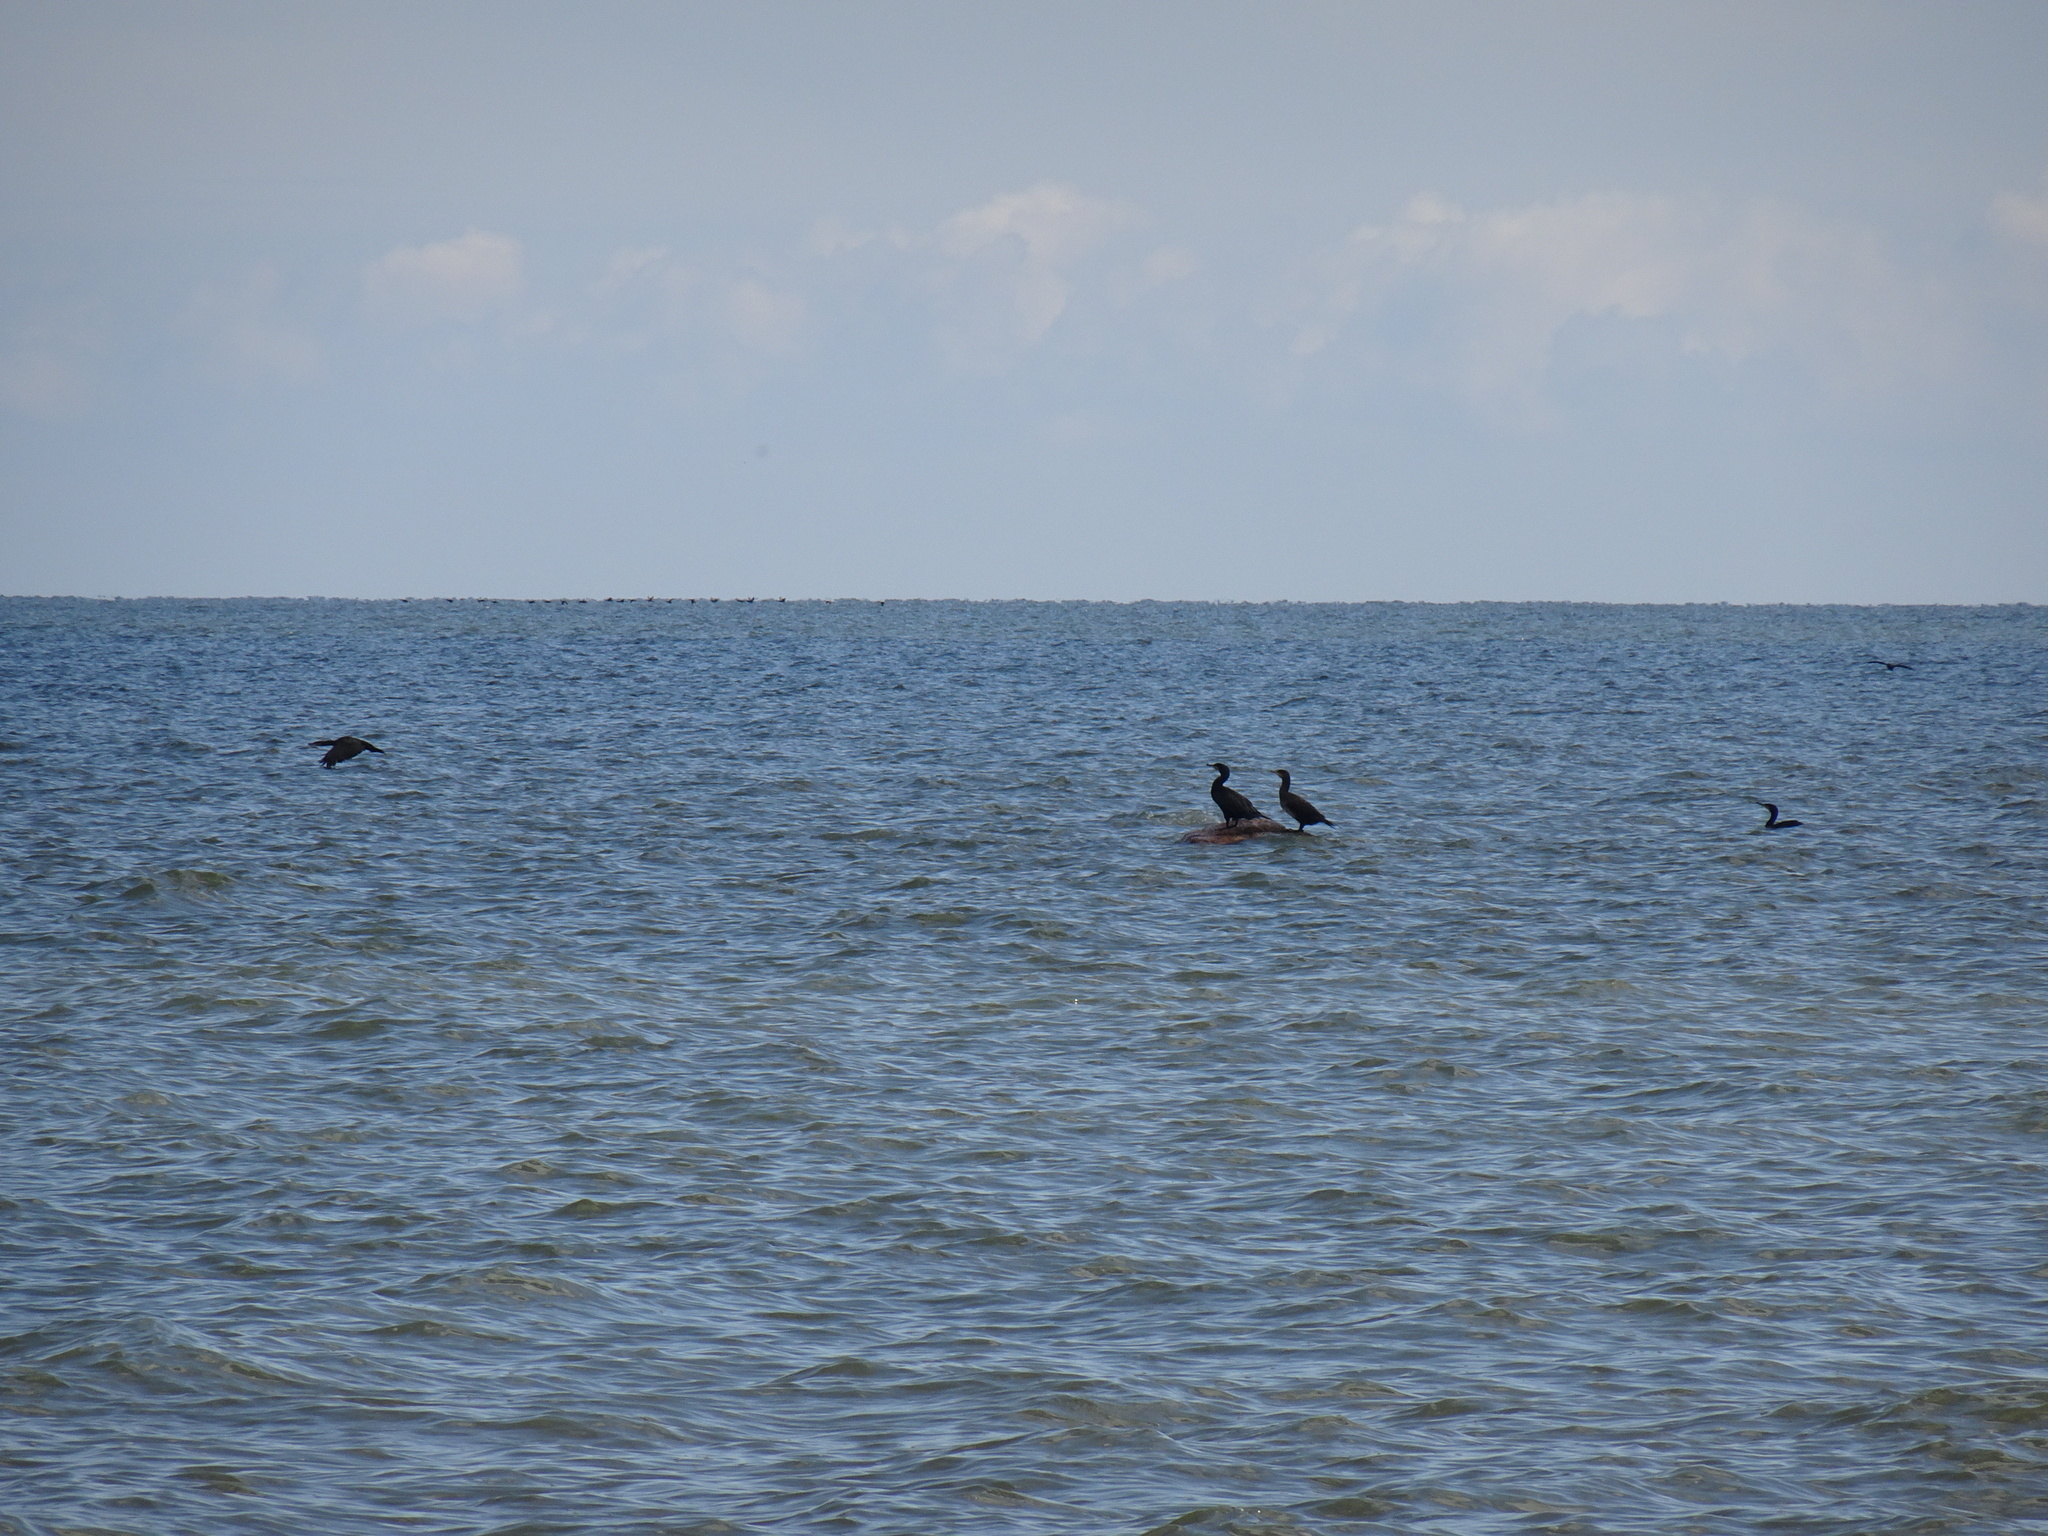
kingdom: Animalia
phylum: Chordata
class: Aves
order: Suliformes
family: Phalacrocoracidae
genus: Phalacrocorax
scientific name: Phalacrocorax carbo
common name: Great cormorant
